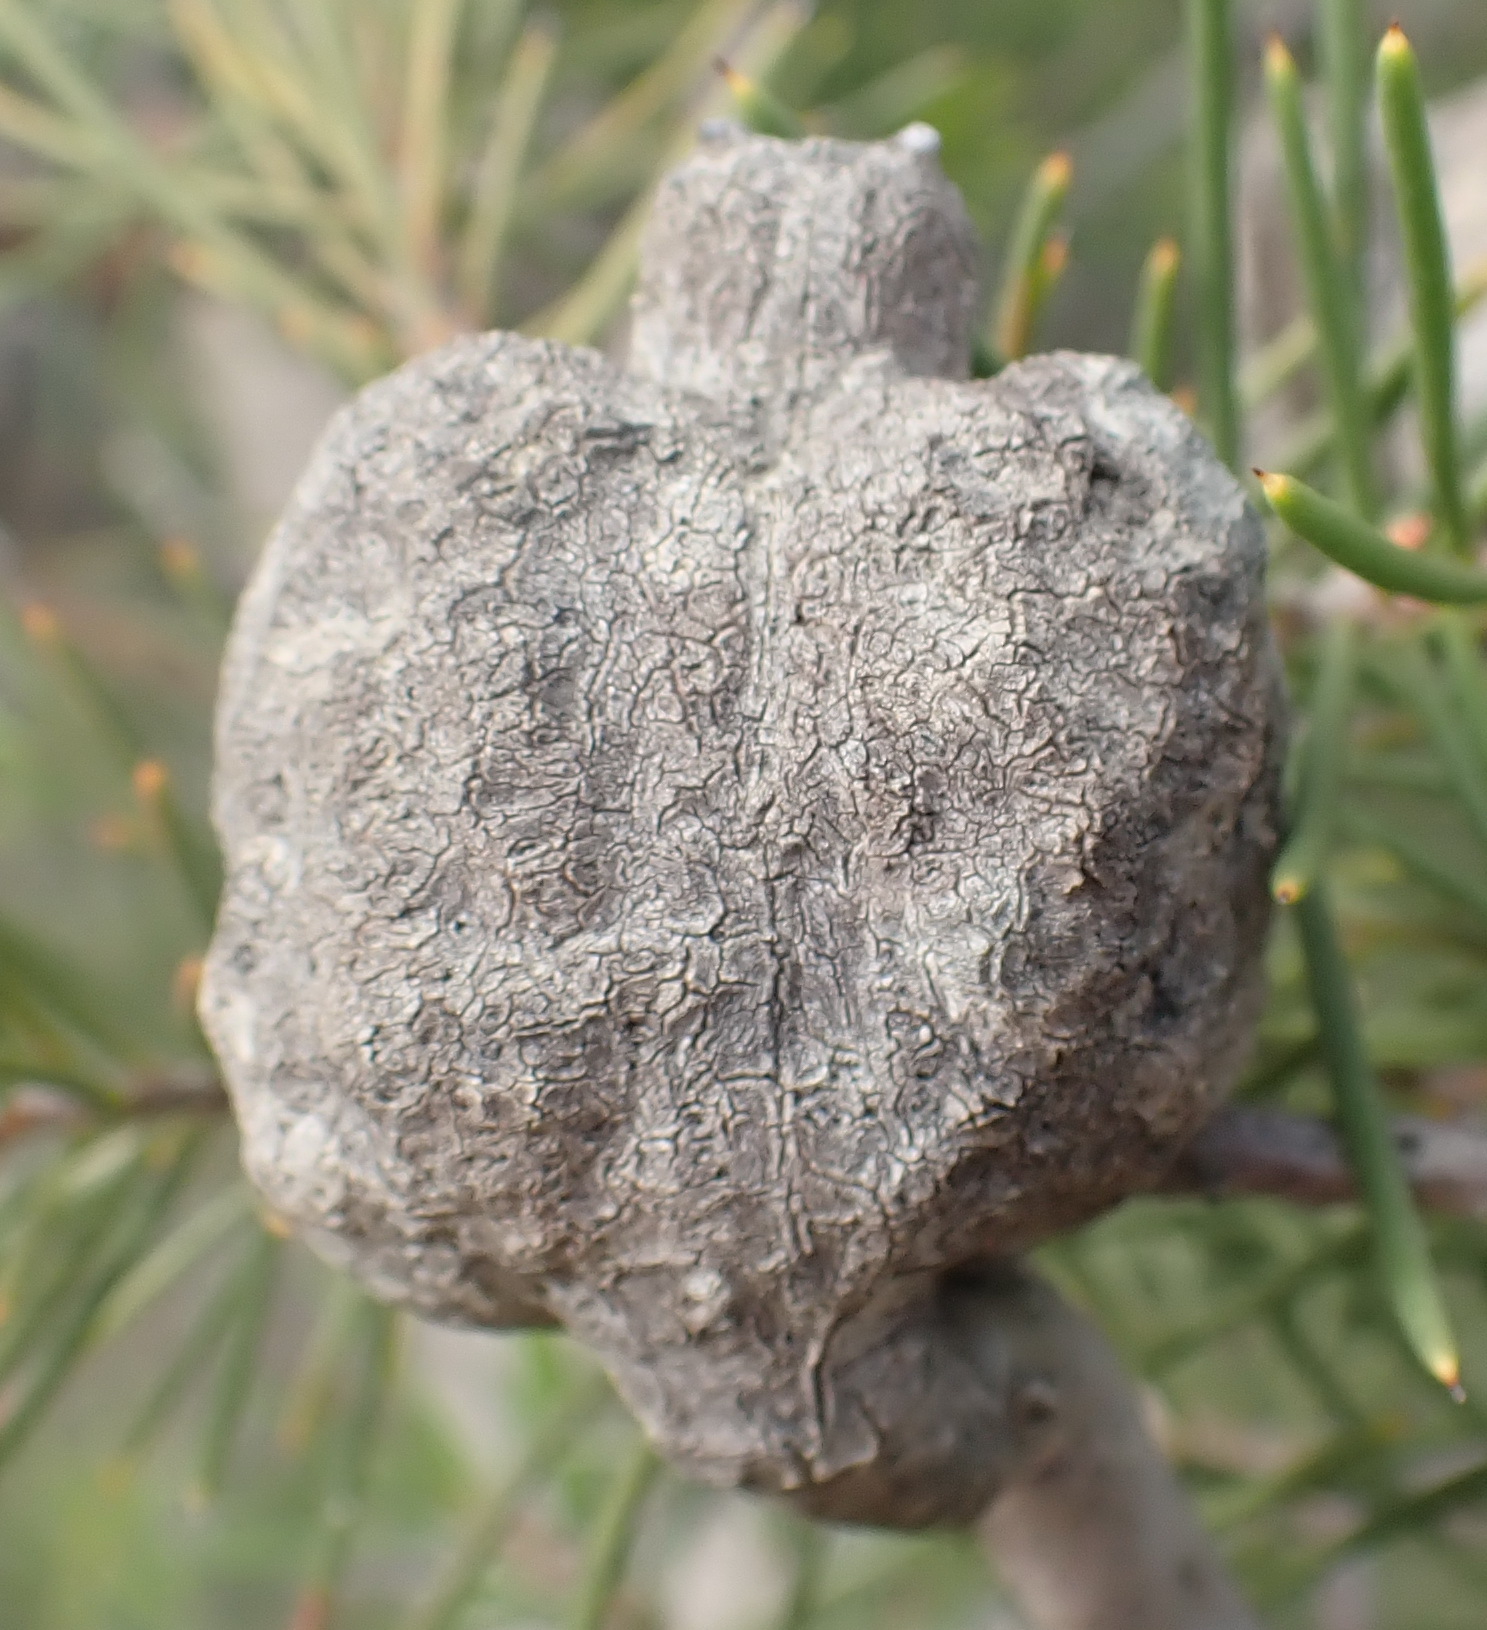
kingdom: Plantae
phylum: Tracheophyta
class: Magnoliopsida
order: Proteales
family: Proteaceae
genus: Hakea
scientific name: Hakea sericea
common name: Needle bush
